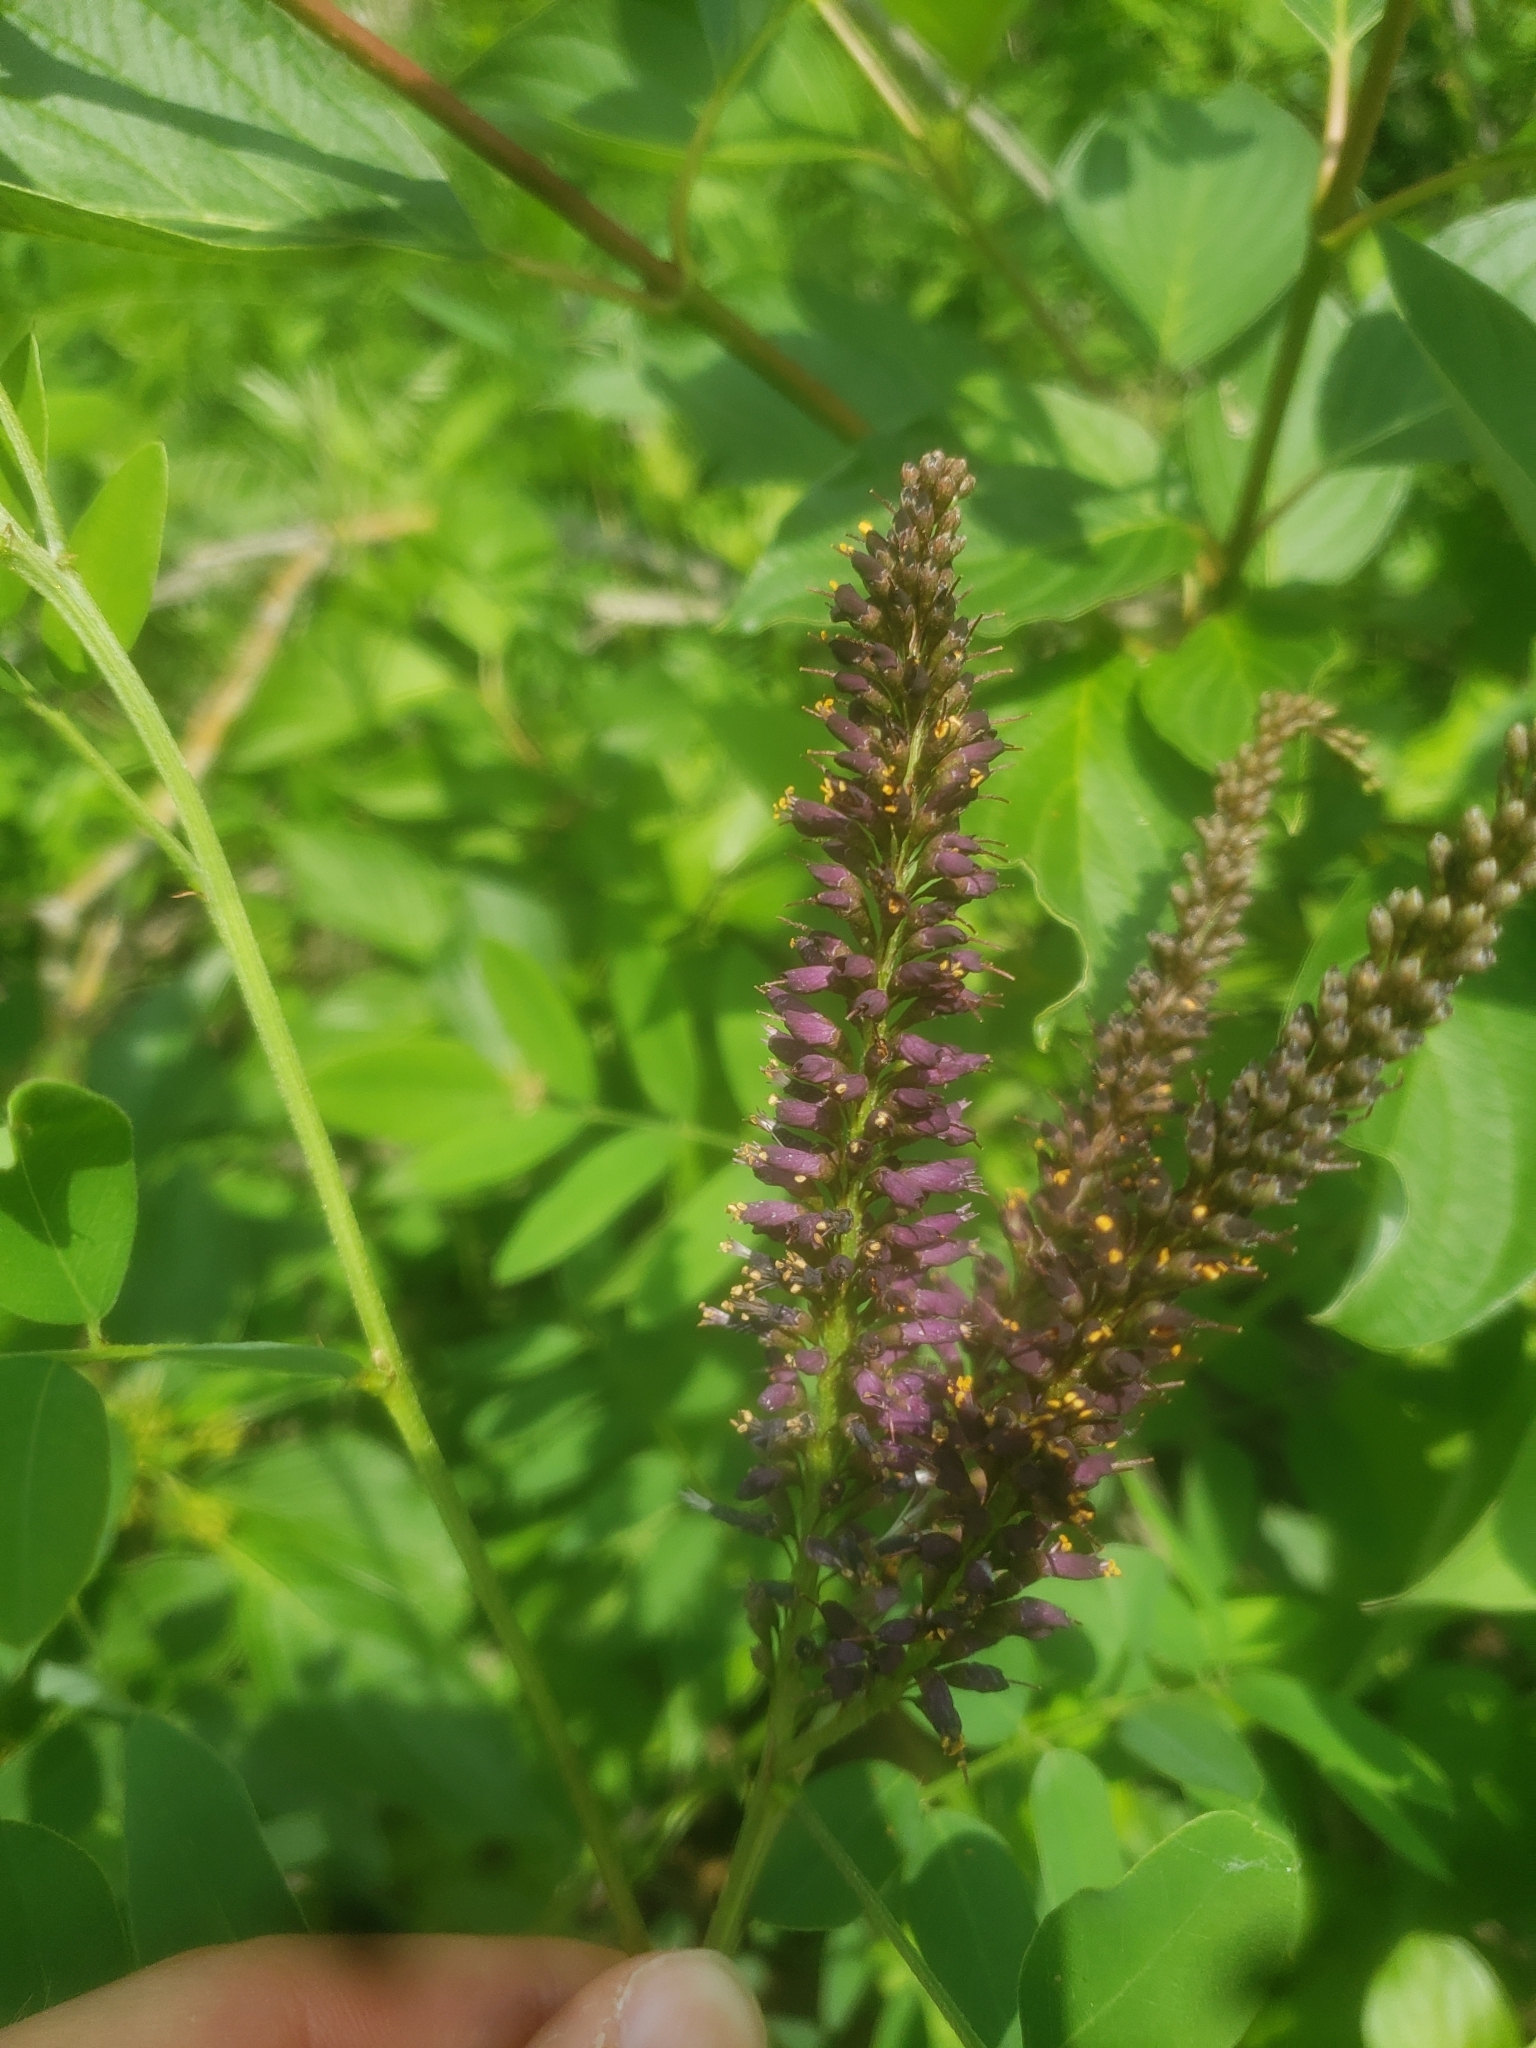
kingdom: Plantae
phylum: Tracheophyta
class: Magnoliopsida
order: Fabales
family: Fabaceae
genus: Amorpha
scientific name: Amorpha fruticosa
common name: False indigo
